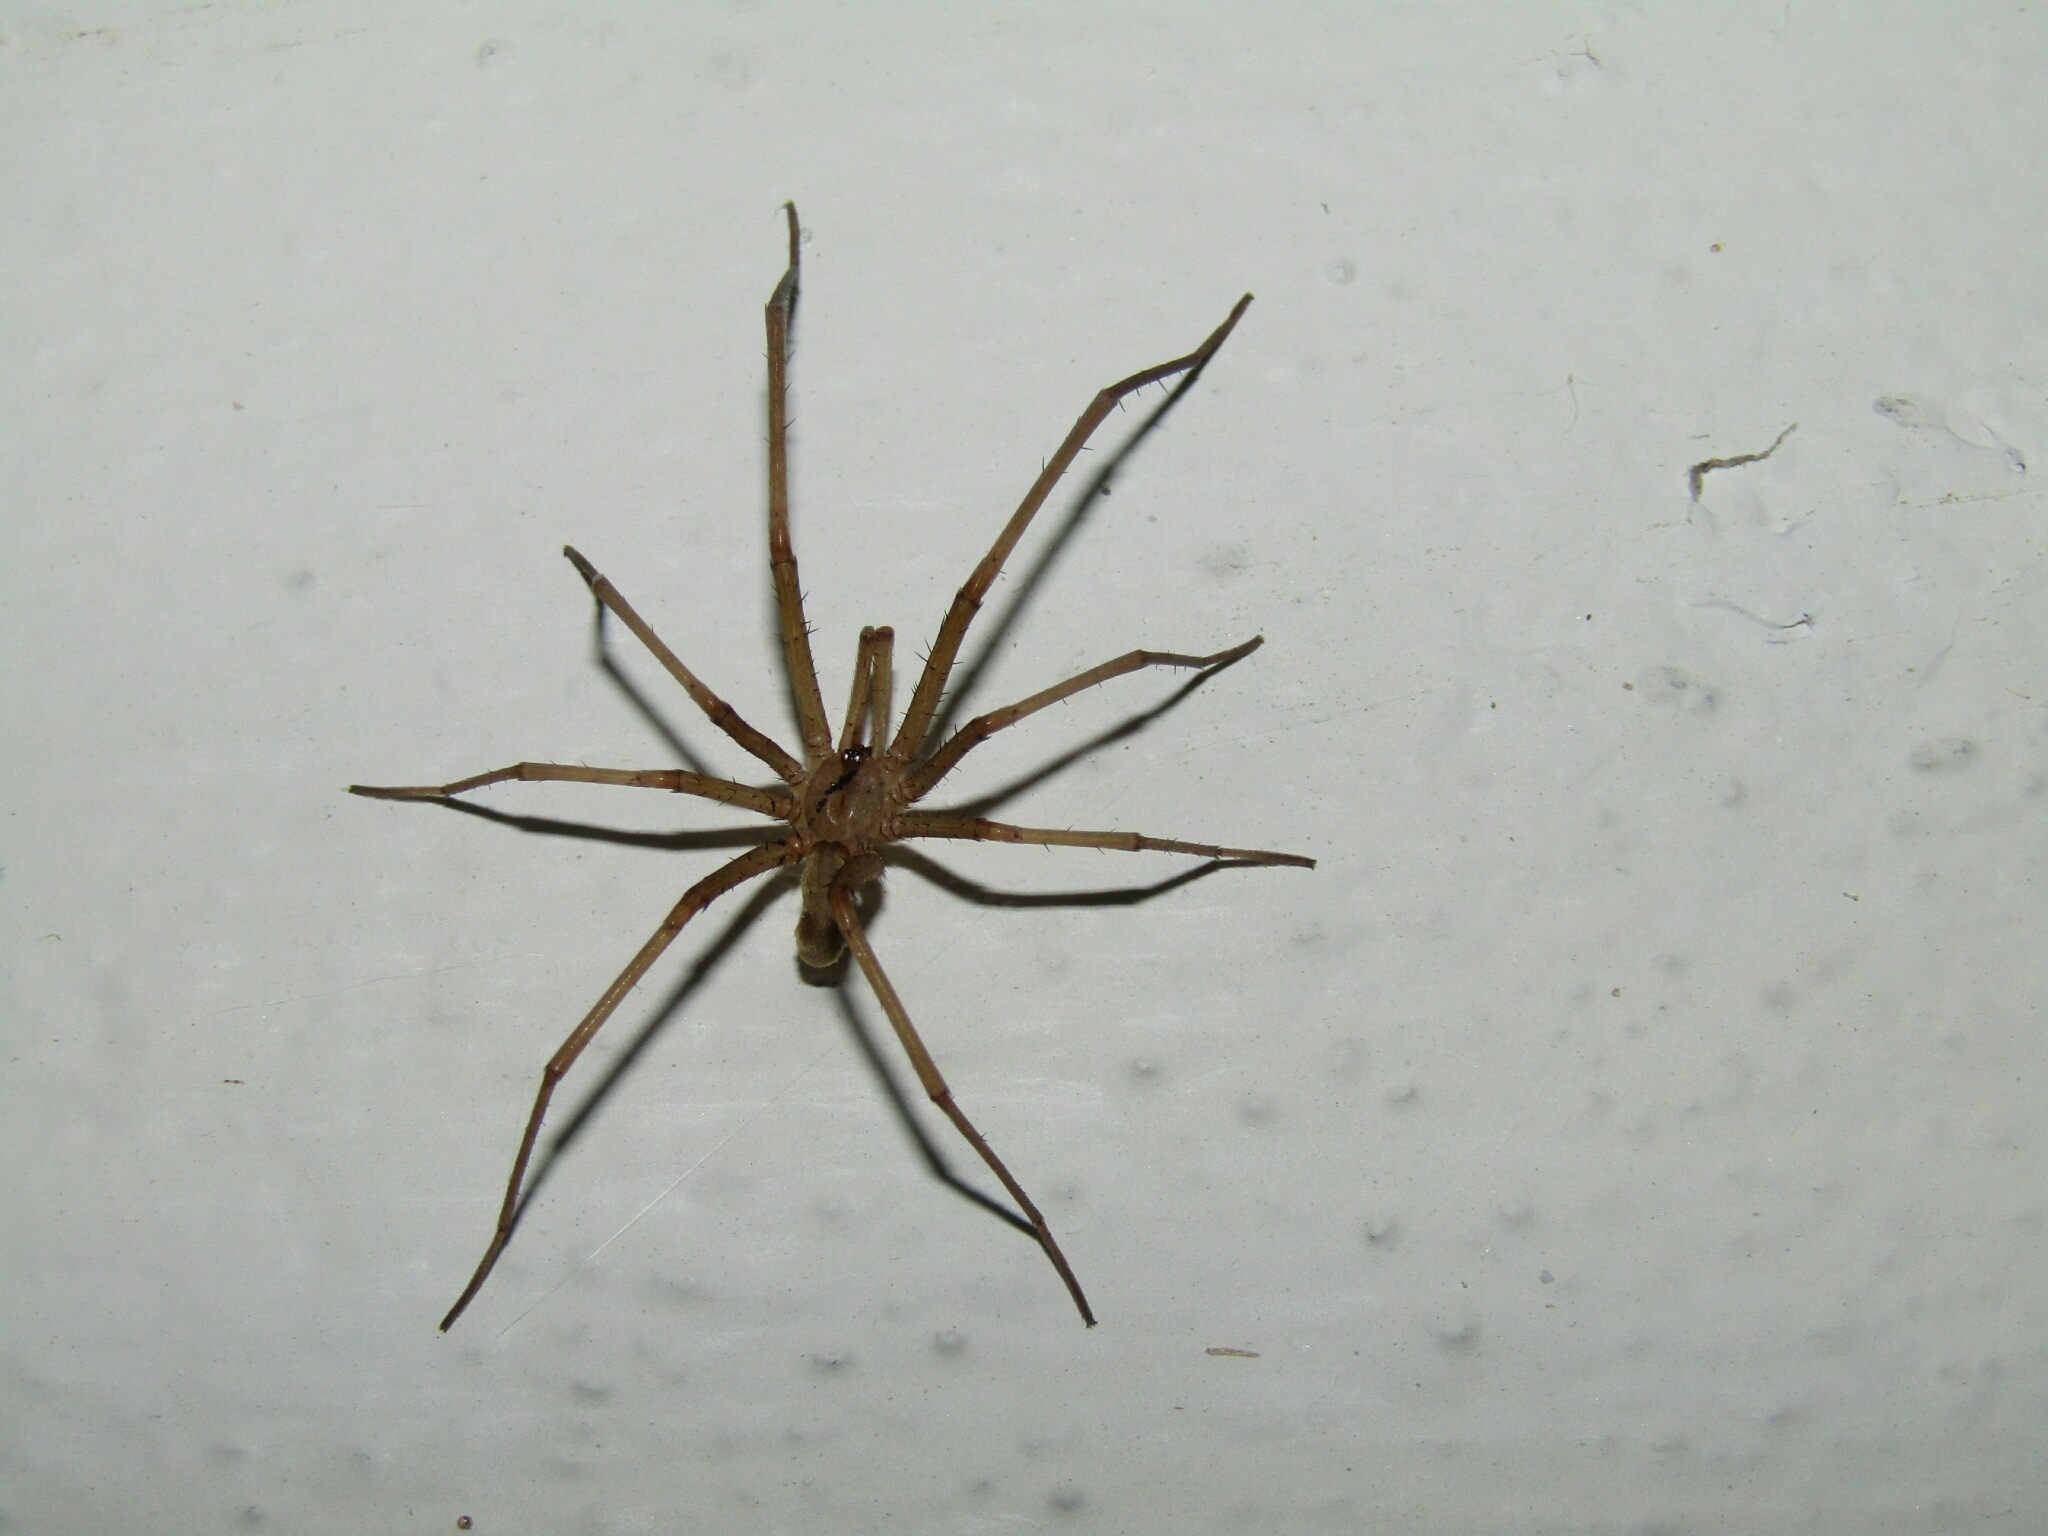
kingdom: Animalia
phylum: Arthropoda
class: Arachnida
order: Araneae
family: Filistatidae
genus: Kukulcania
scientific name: Kukulcania hibernalis
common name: Crevice weaver
